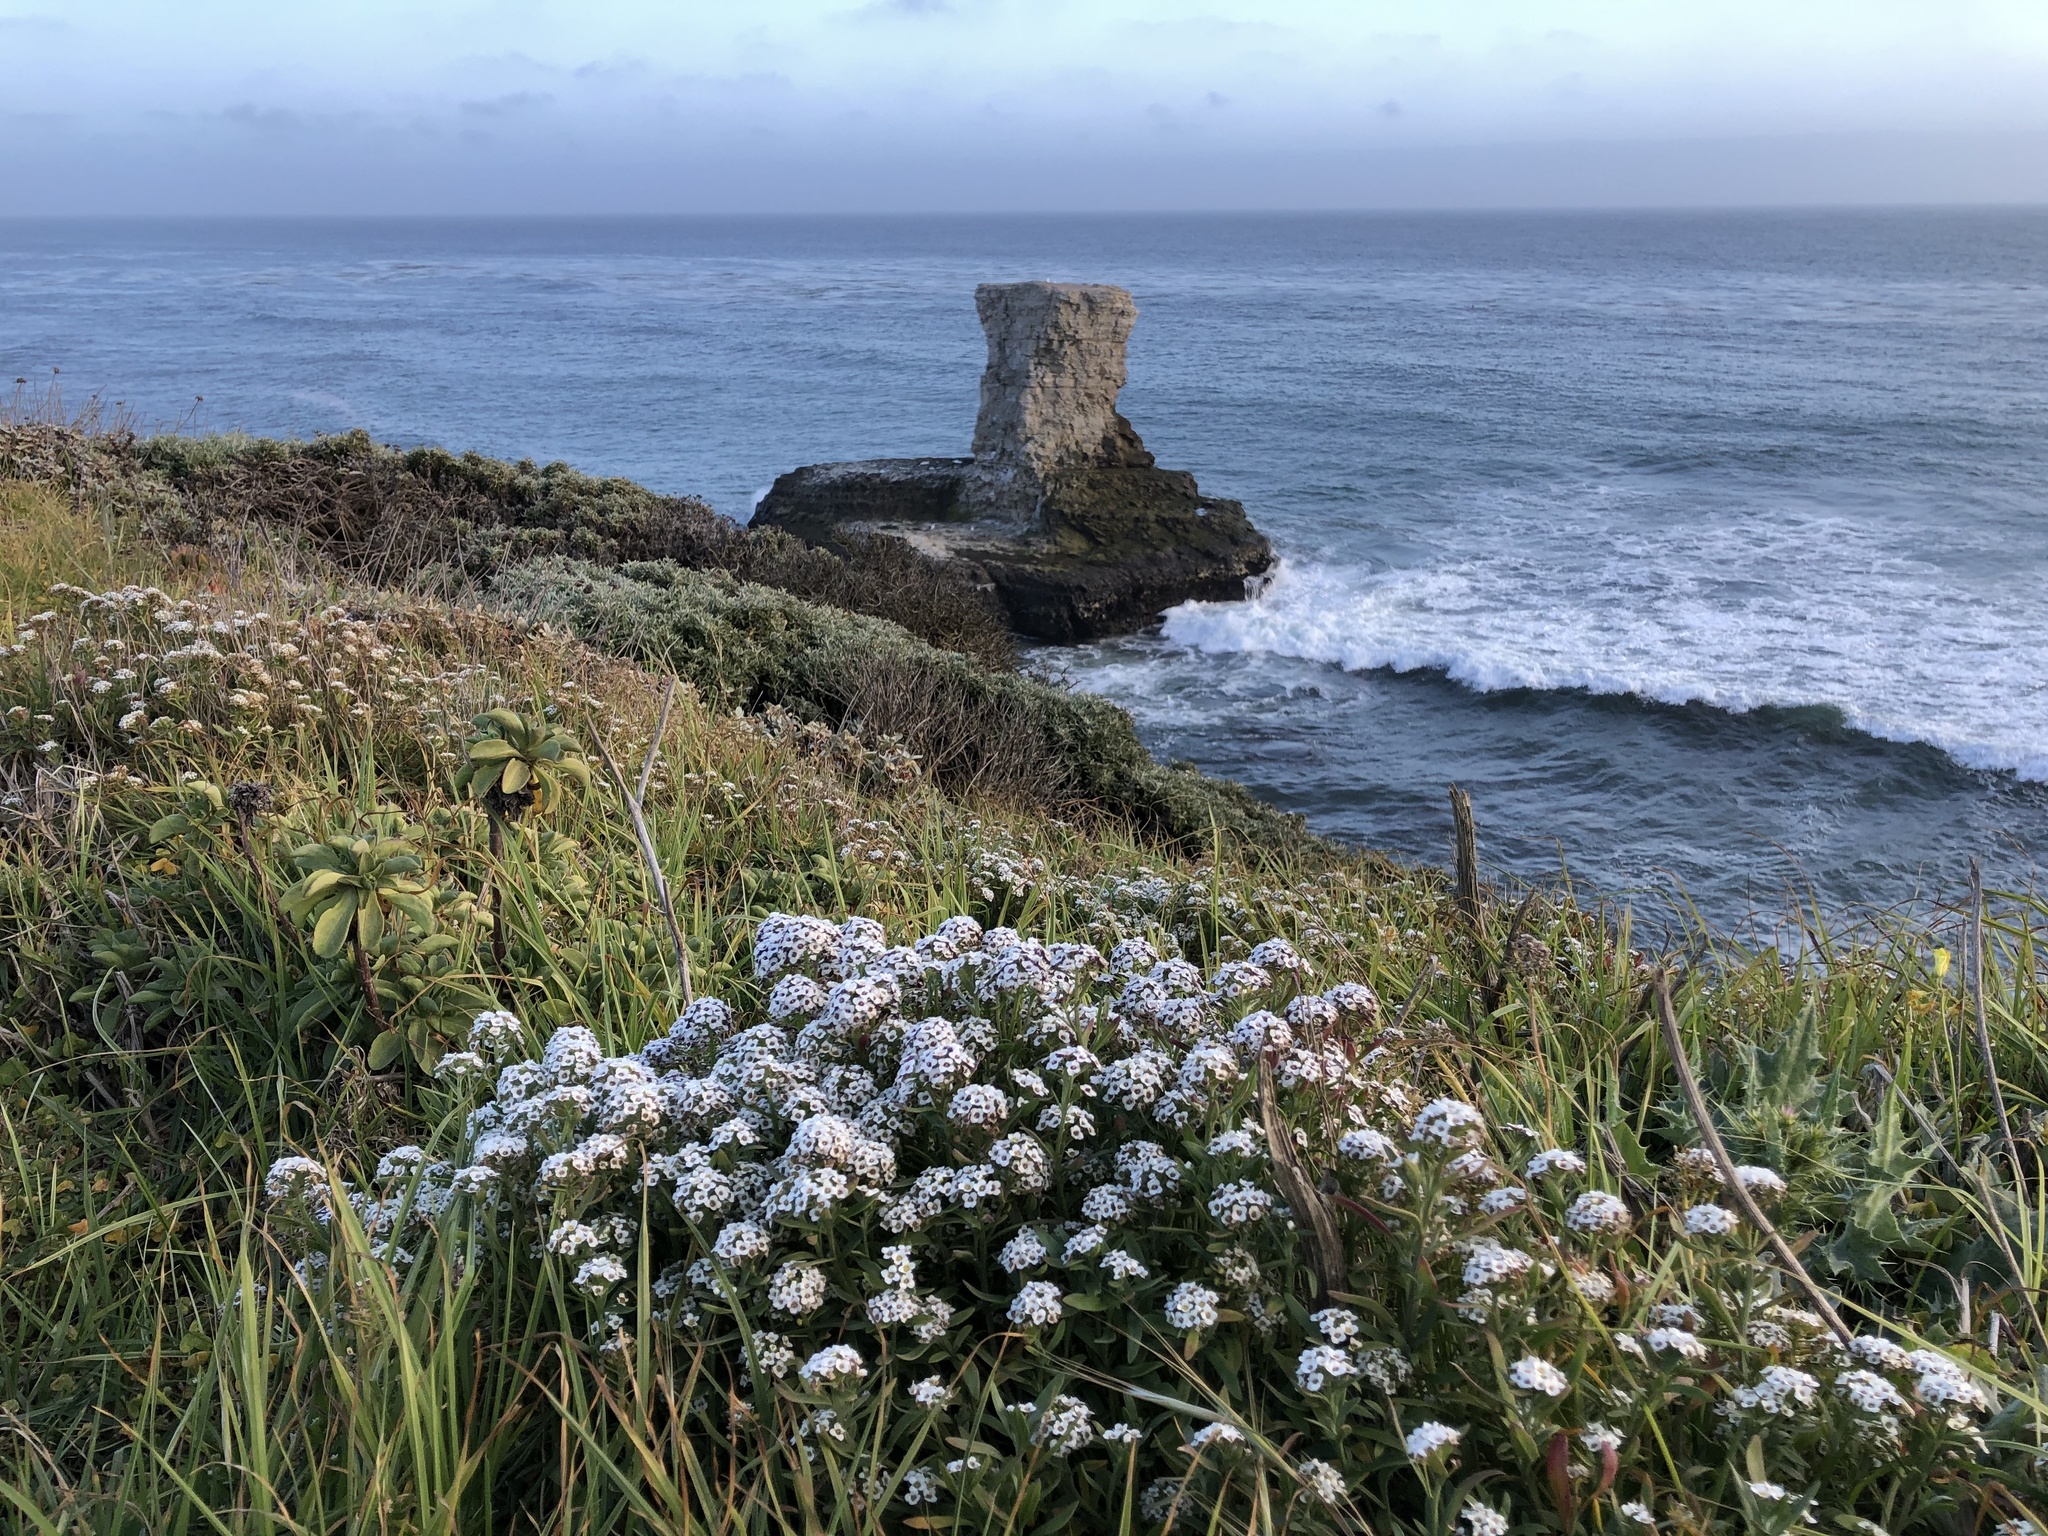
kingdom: Plantae
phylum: Tracheophyta
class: Magnoliopsida
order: Brassicales
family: Brassicaceae
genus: Lobularia
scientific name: Lobularia maritima
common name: Sweet alison
